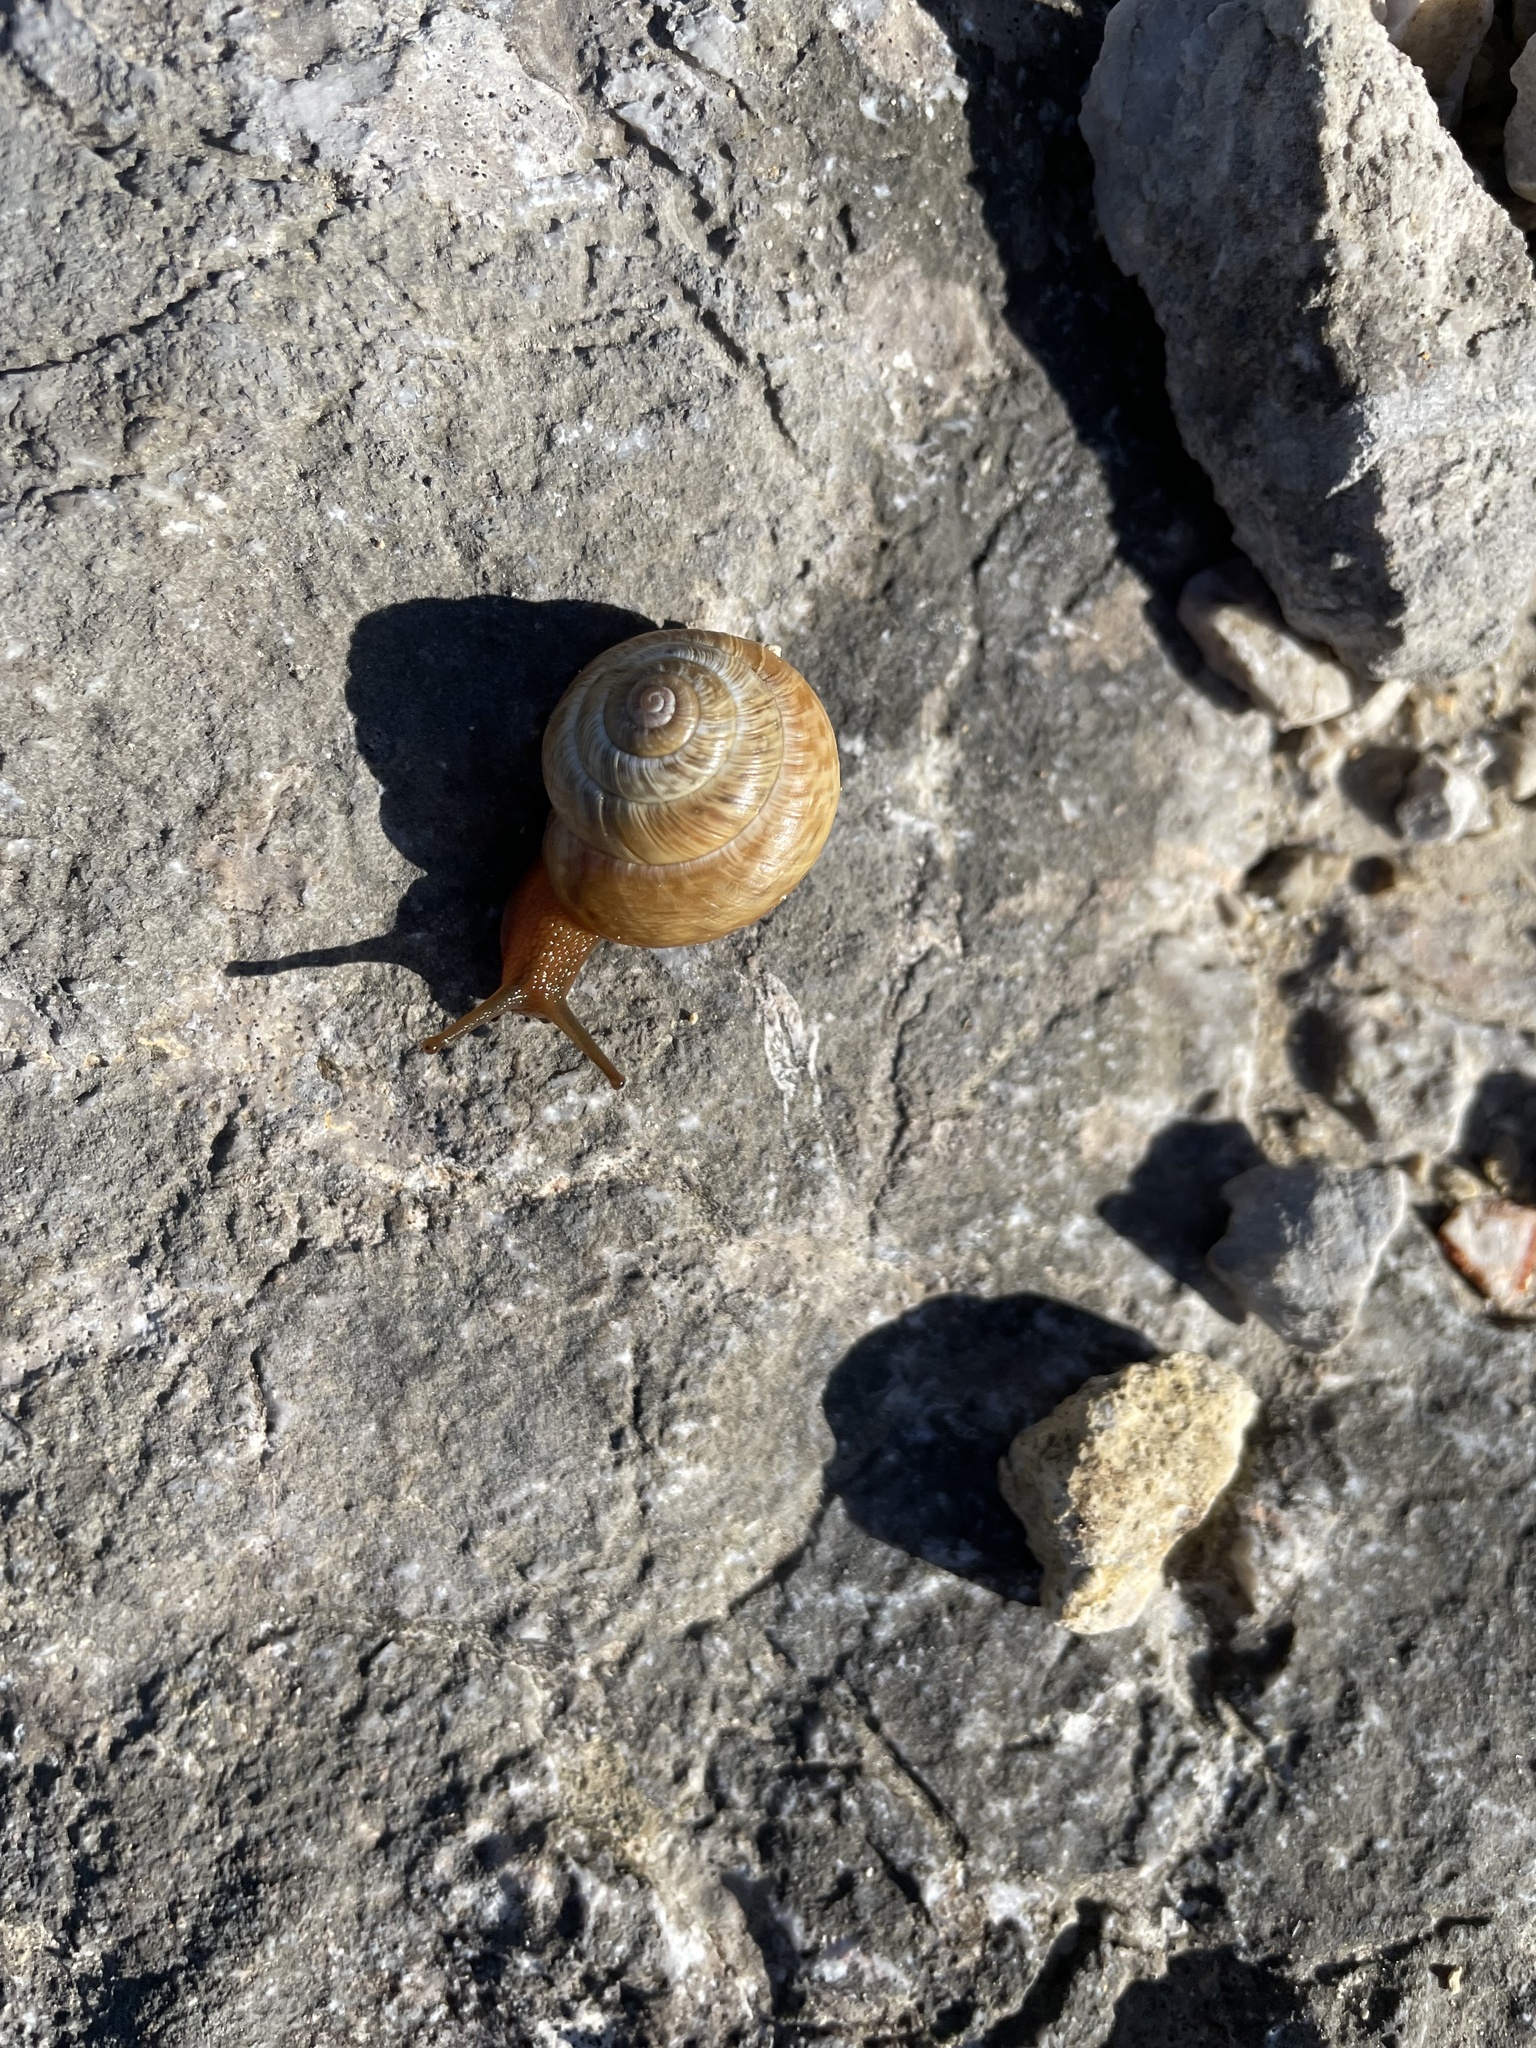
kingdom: Animalia
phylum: Mollusca
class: Gastropoda
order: Stylommatophora
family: Helicidae
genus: Arianta
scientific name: Arianta arbustorum
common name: Copse snail
